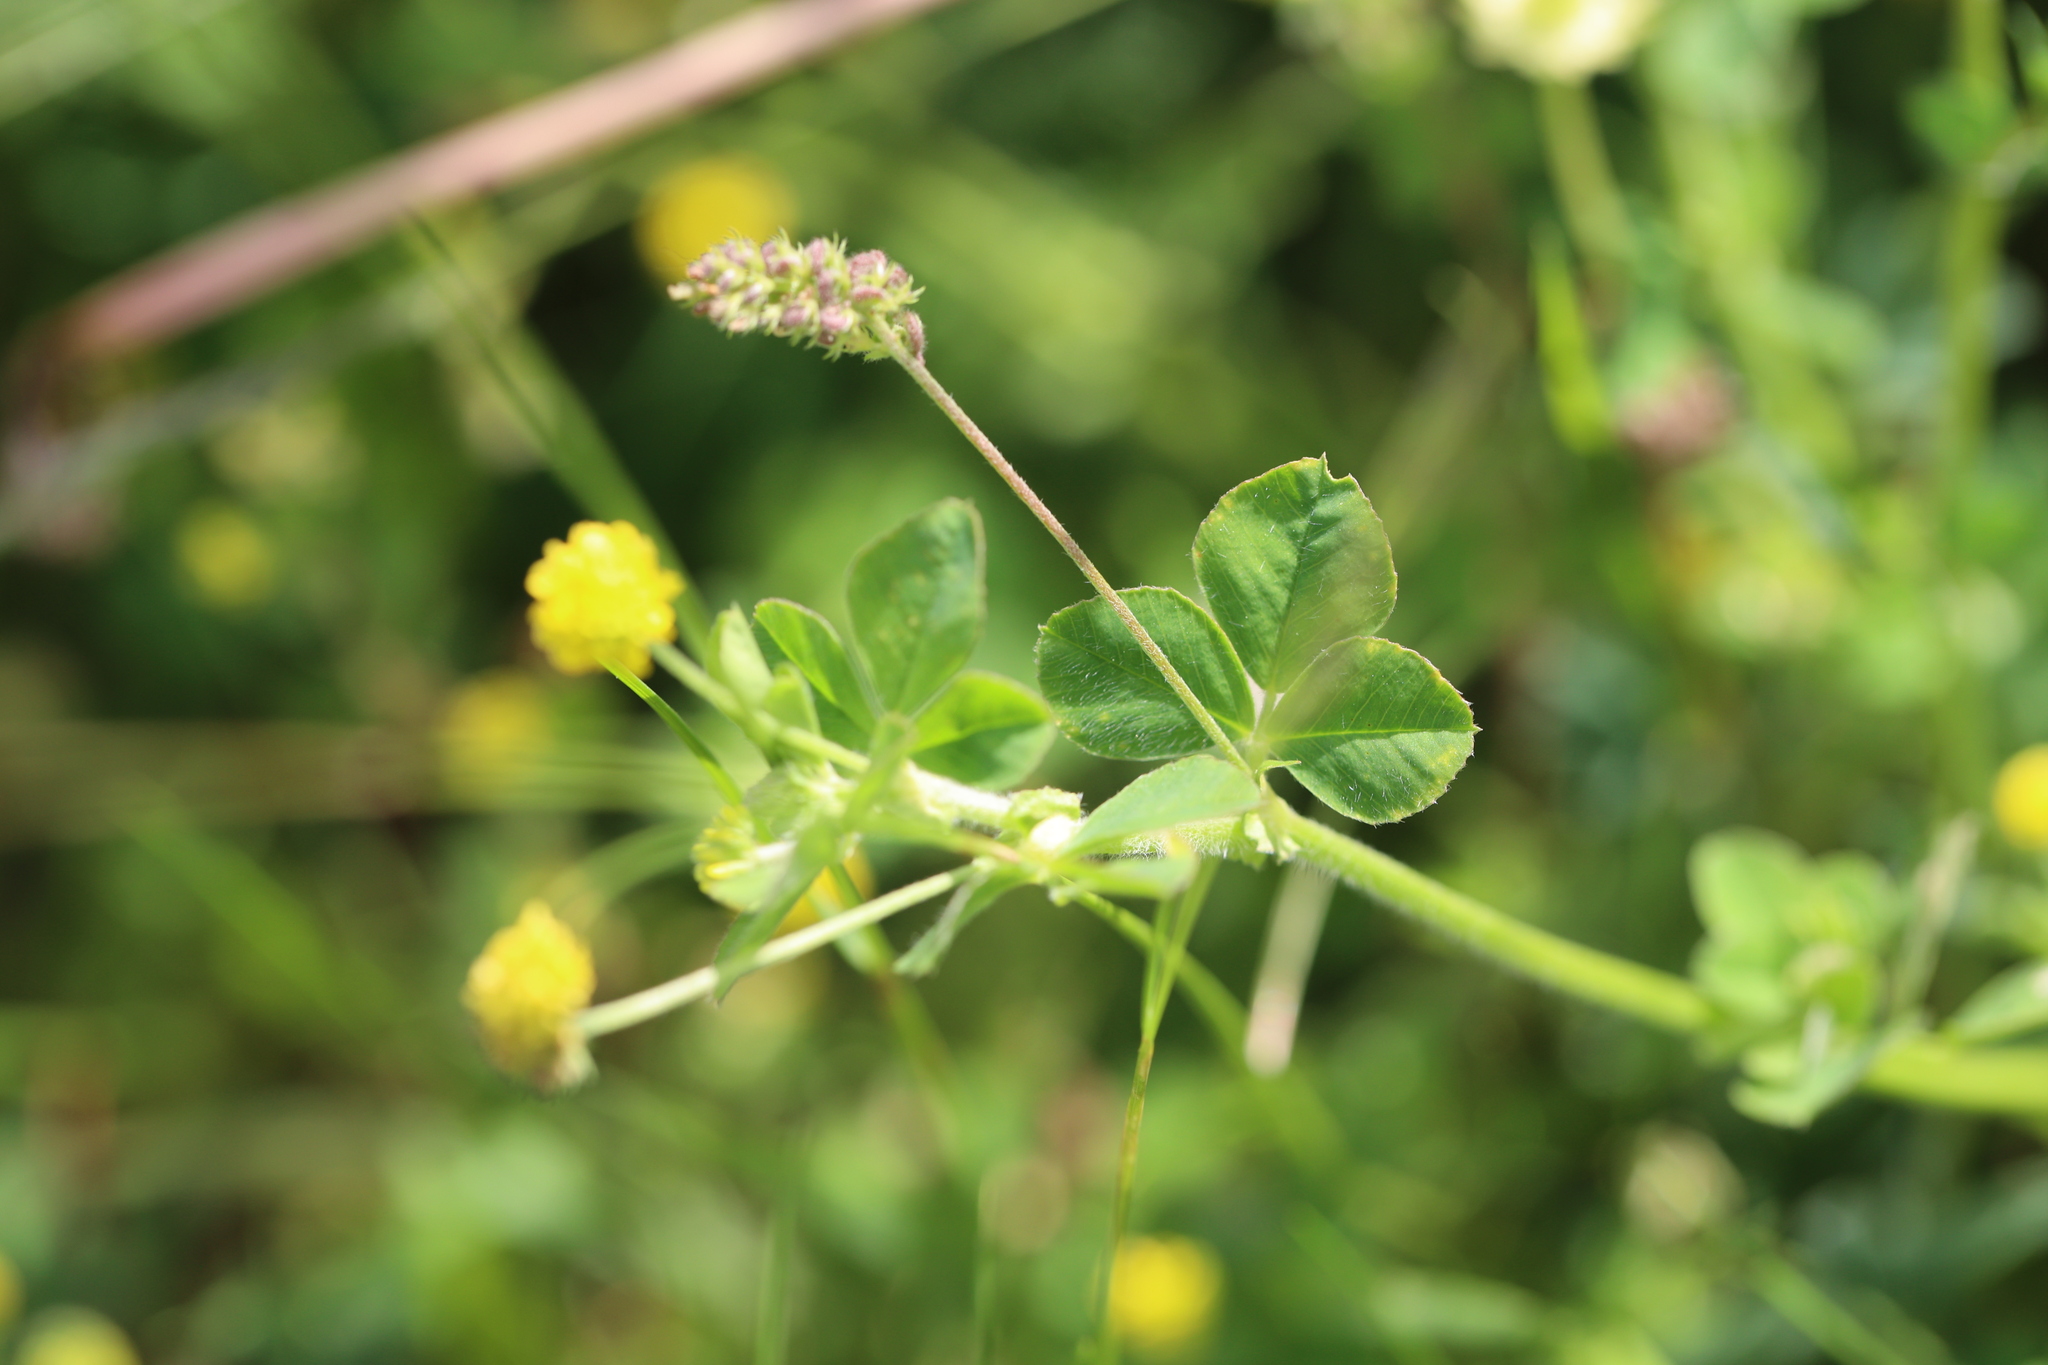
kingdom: Plantae
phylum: Tracheophyta
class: Magnoliopsida
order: Fabales
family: Fabaceae
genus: Medicago
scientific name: Medicago lupulina
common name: Black medick
